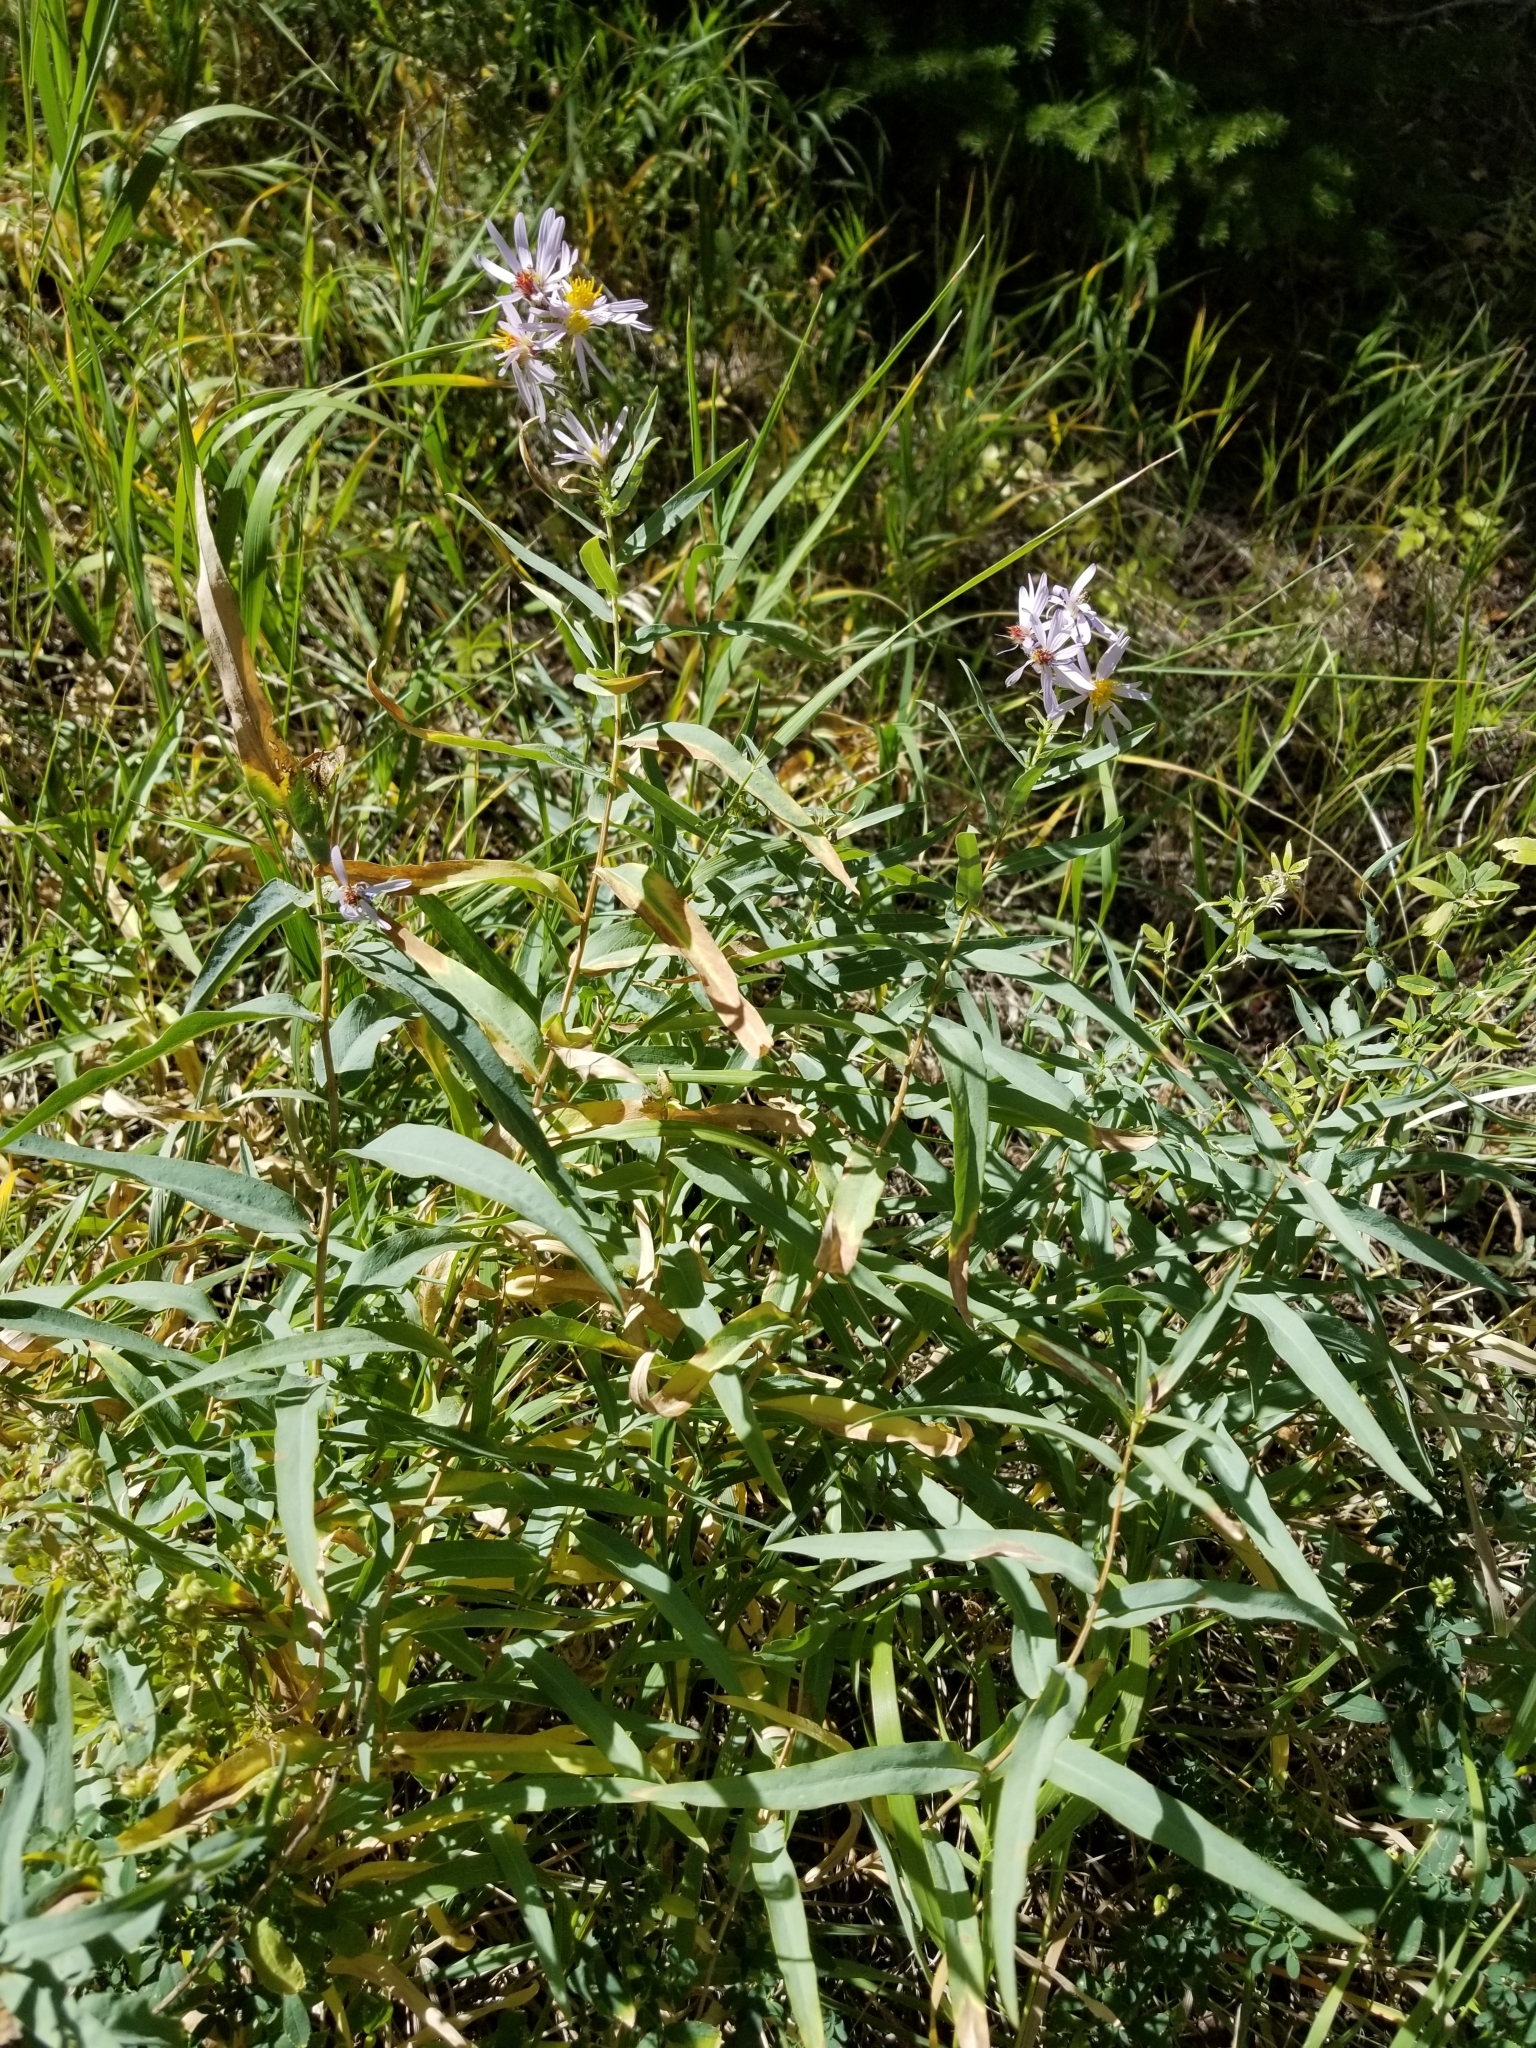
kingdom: Plantae
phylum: Tracheophyta
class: Magnoliopsida
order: Asterales
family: Asteraceae
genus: Eurybia
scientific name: Eurybia glauca
